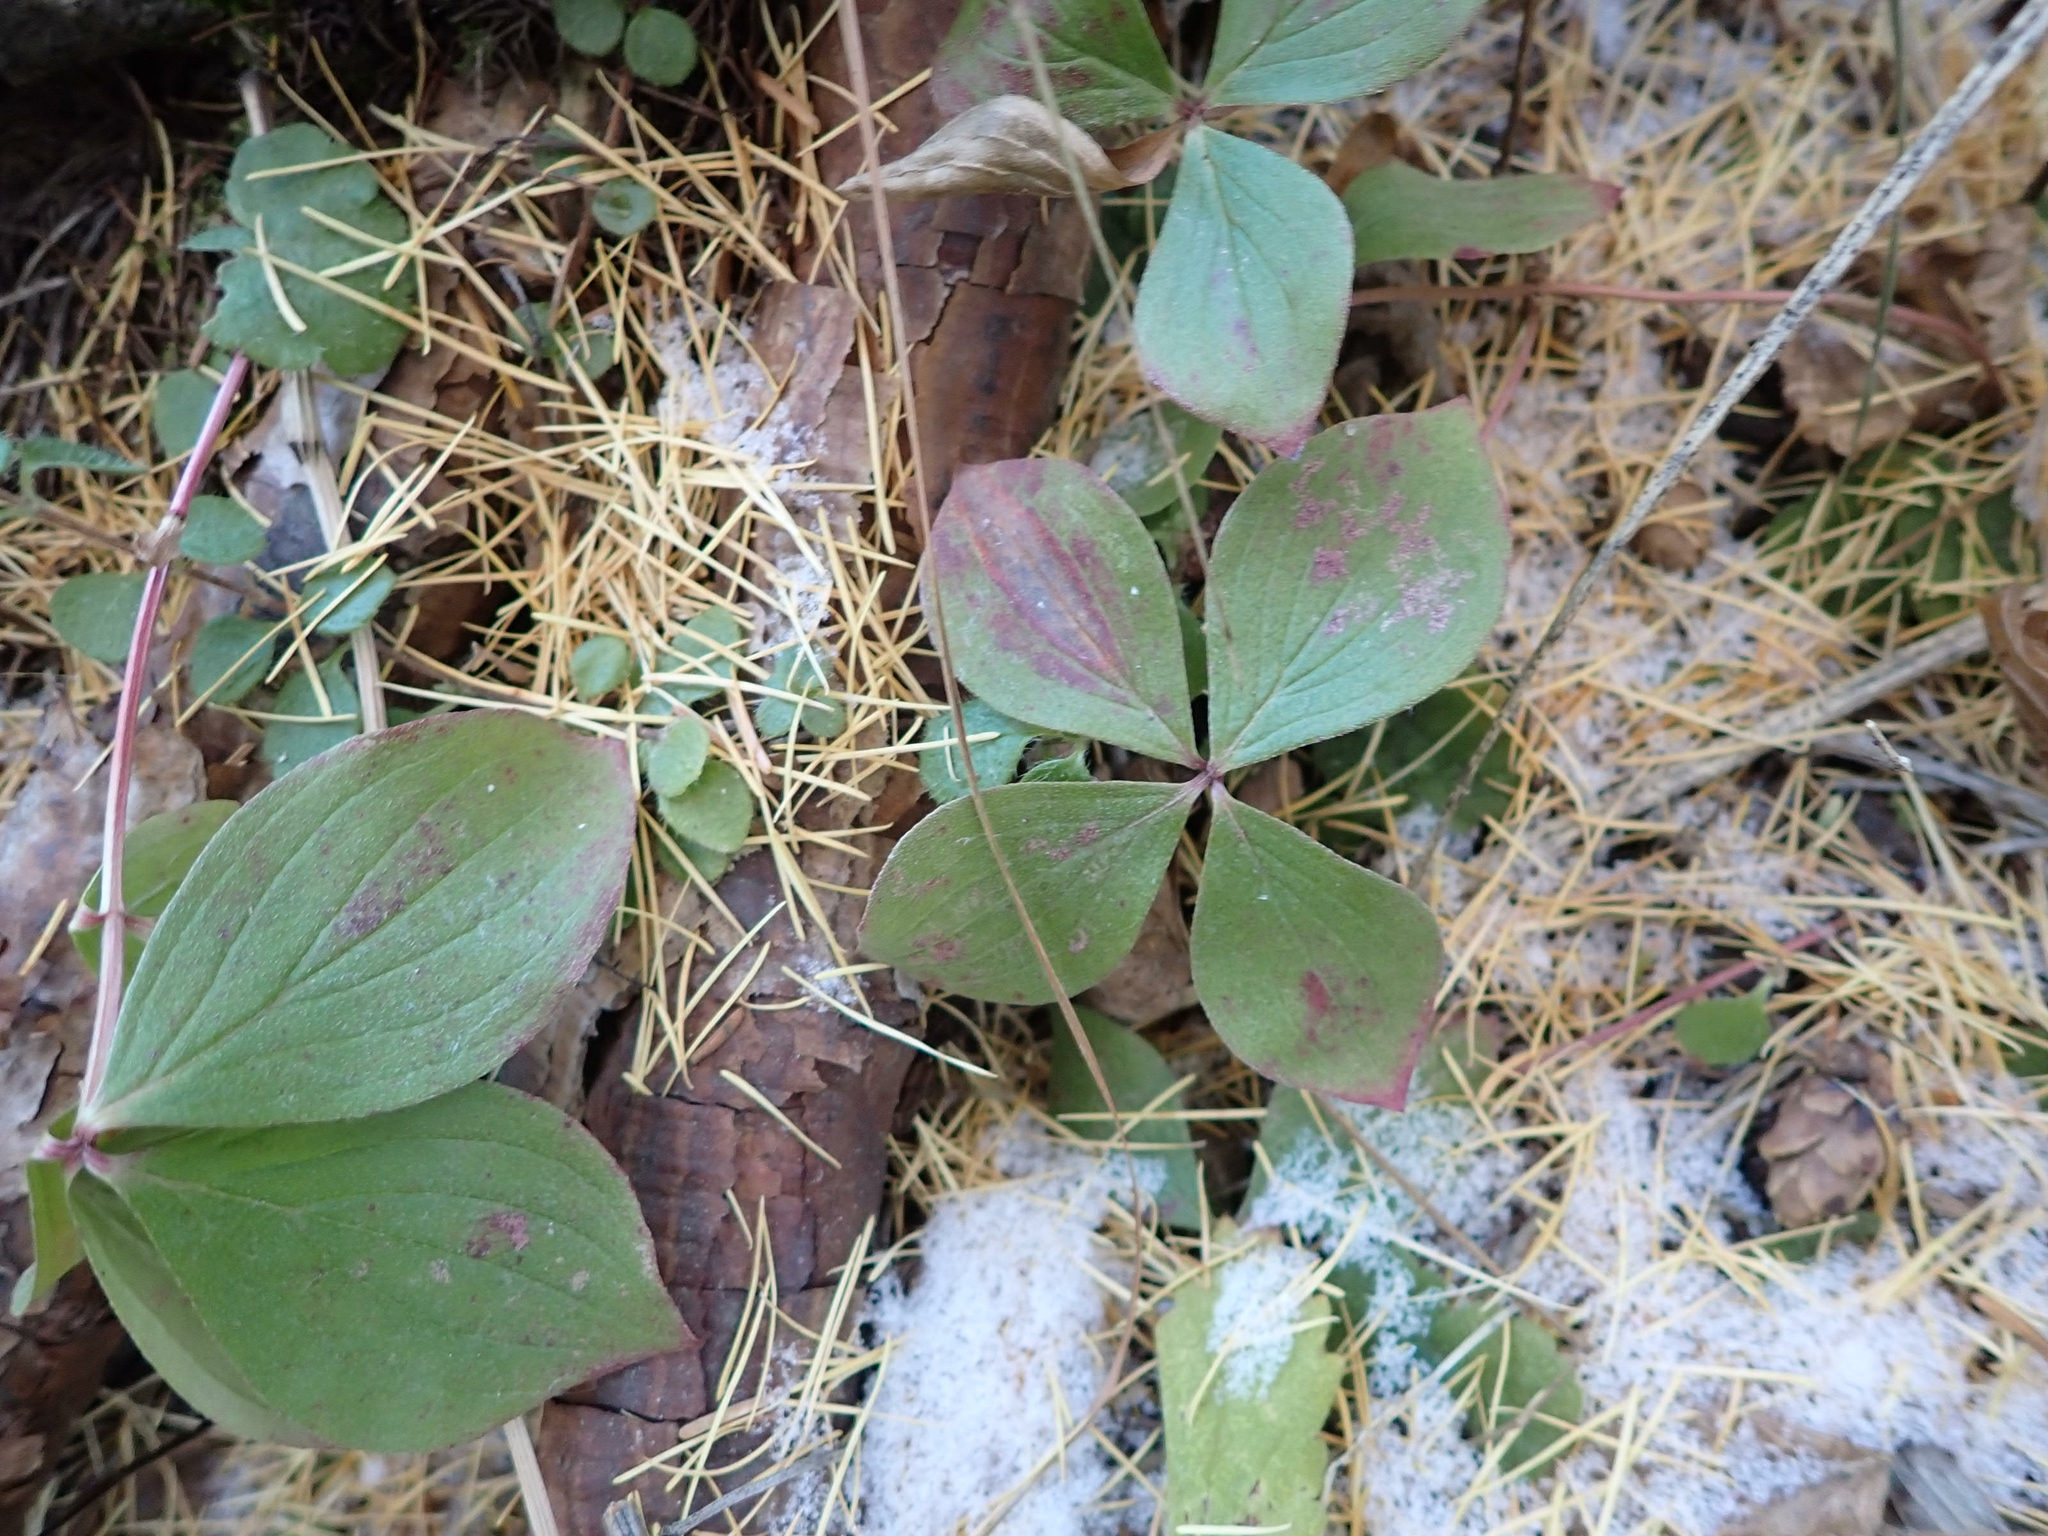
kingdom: Plantae
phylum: Tracheophyta
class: Magnoliopsida
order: Cornales
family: Cornaceae
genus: Cornus
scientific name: Cornus canadensis
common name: Creeping dogwood
